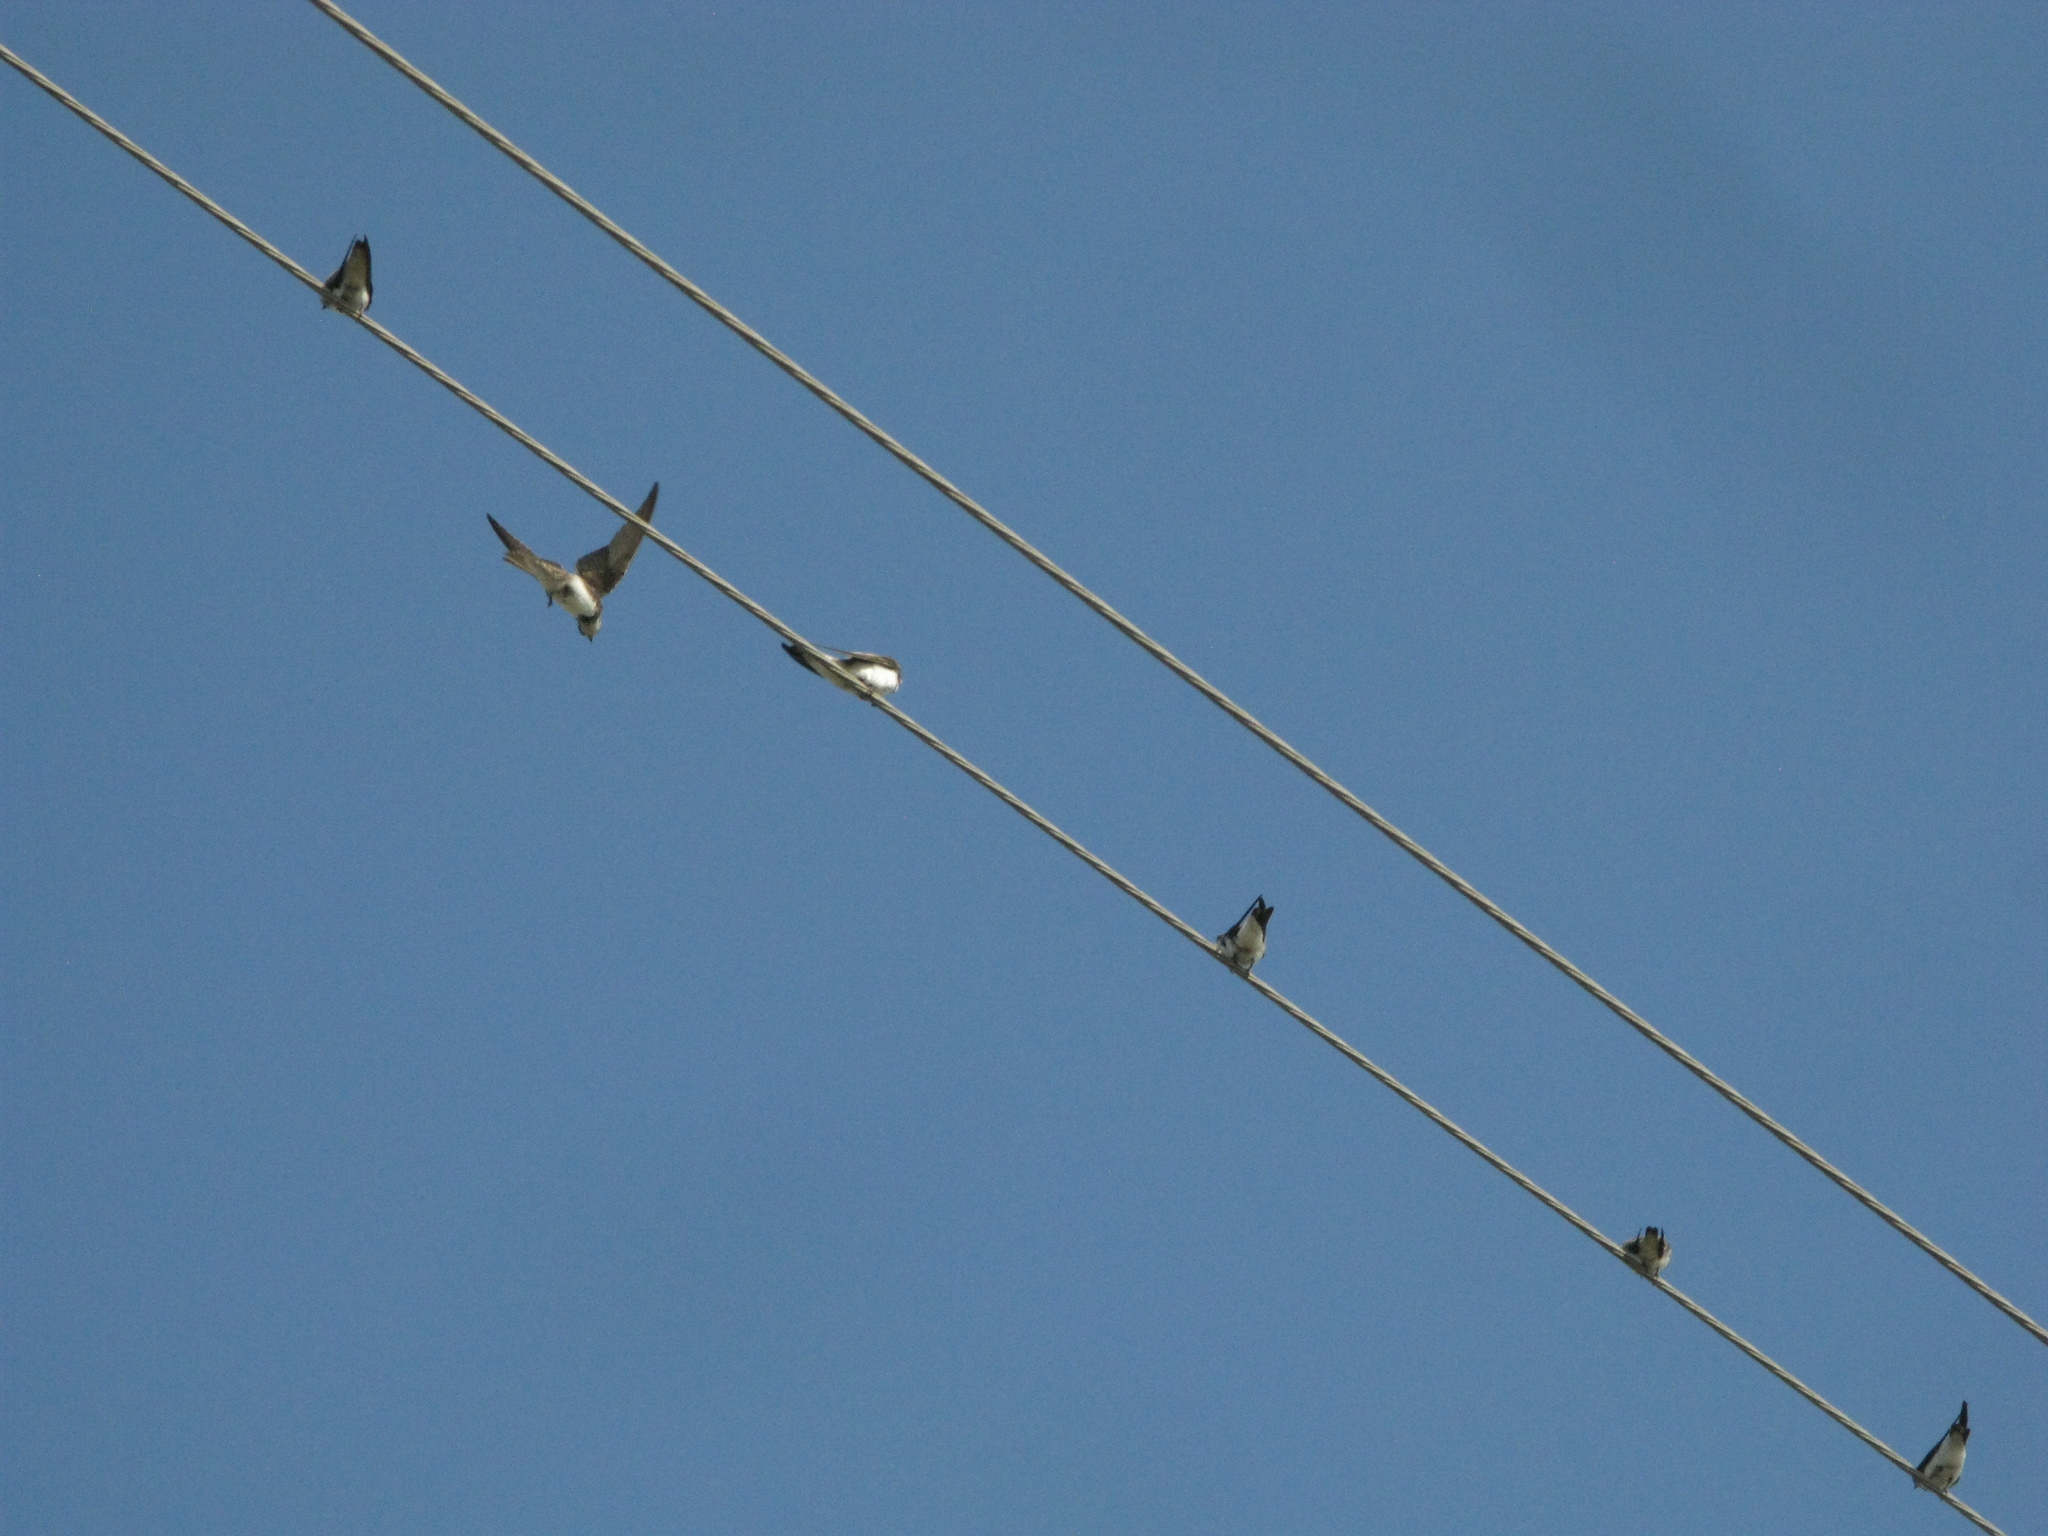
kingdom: Animalia
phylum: Chordata
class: Aves
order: Passeriformes
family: Hirundinidae
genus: Riparia
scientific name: Riparia riparia
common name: Sand martin
